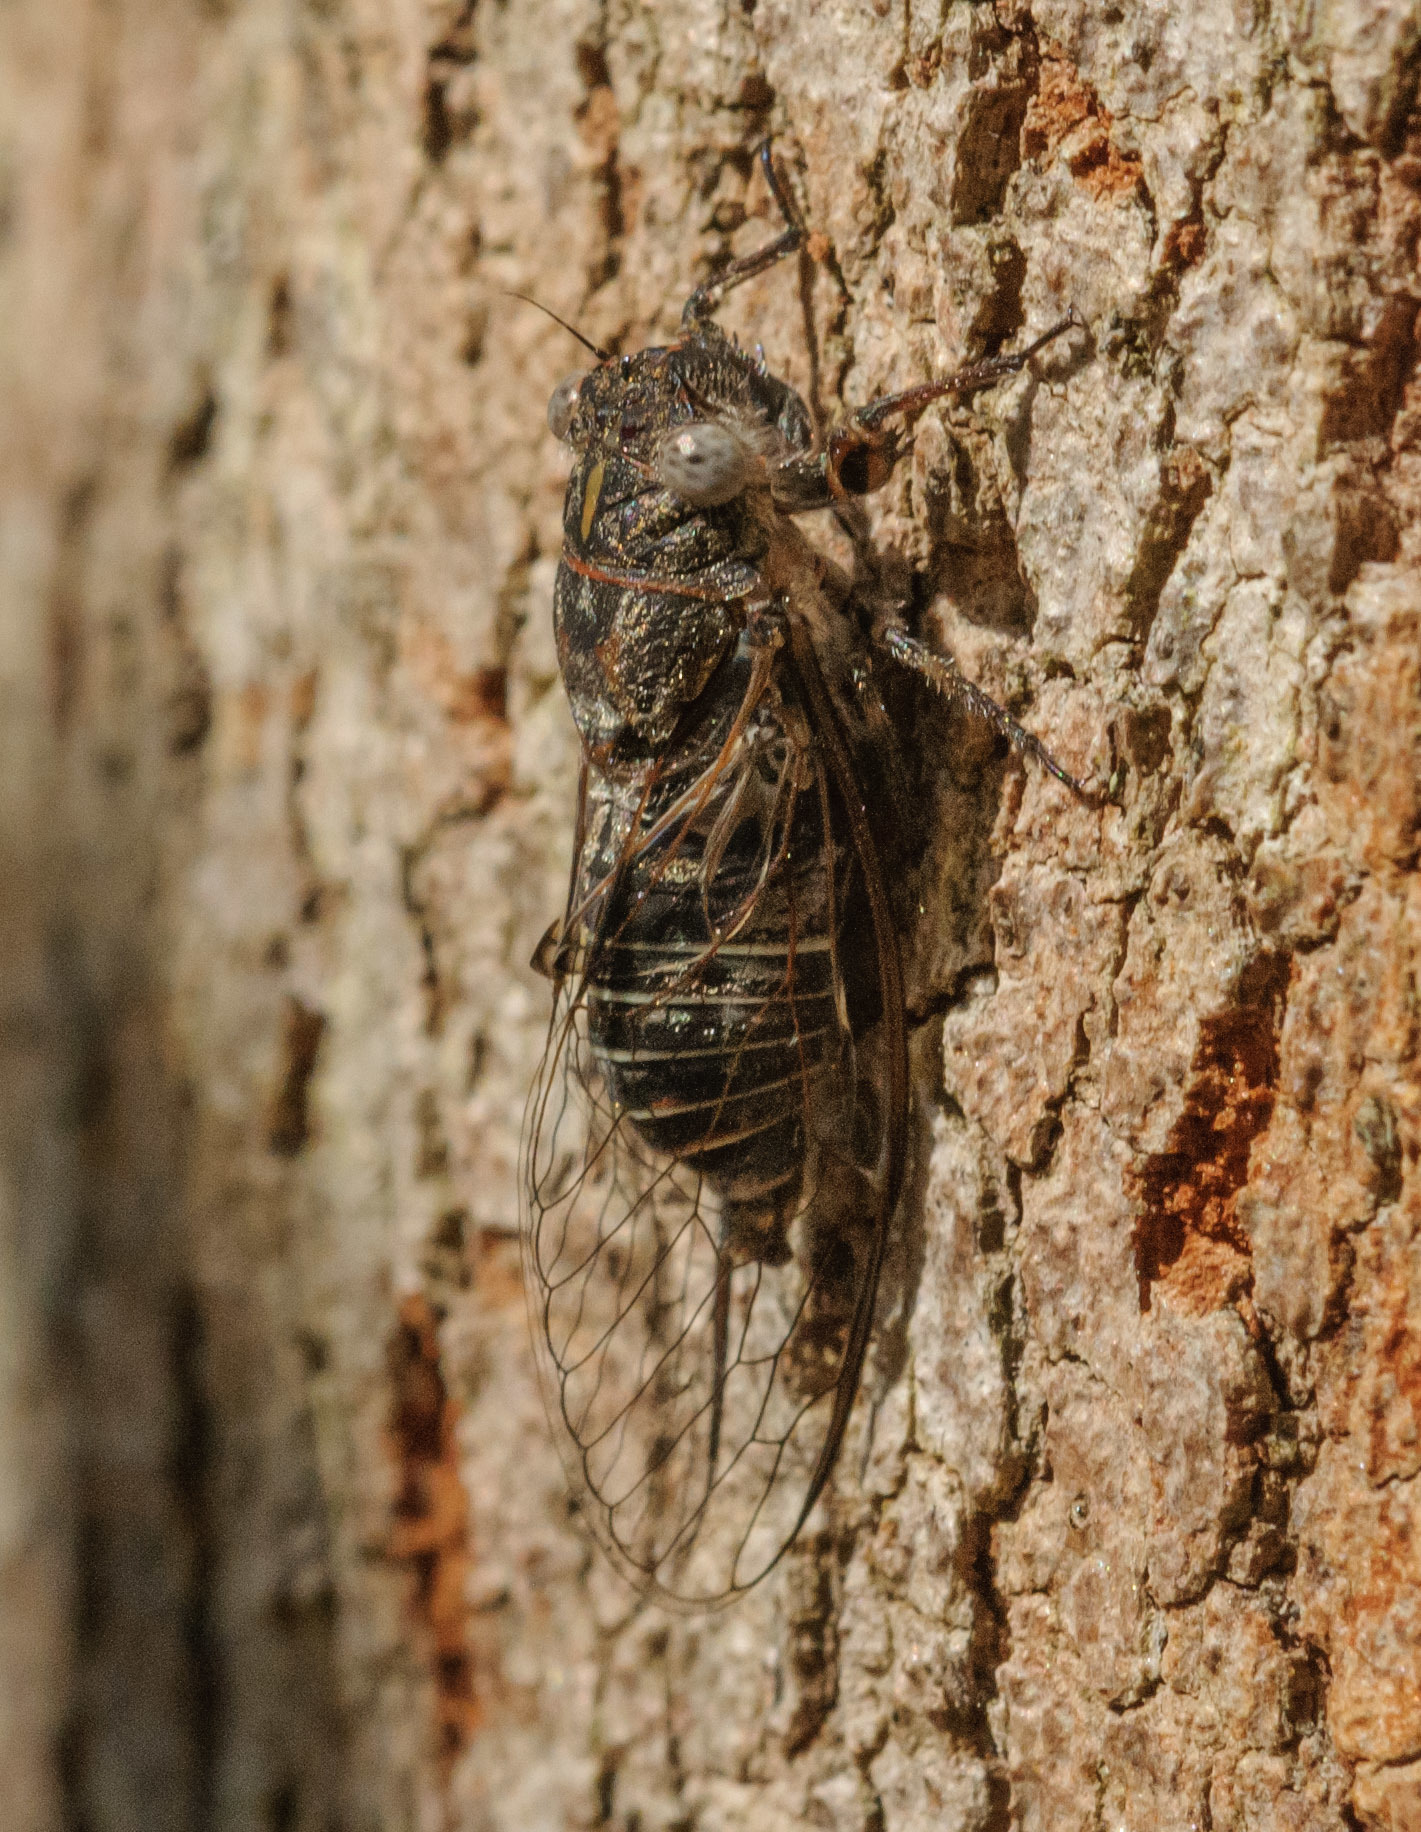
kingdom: Animalia
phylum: Arthropoda
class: Insecta
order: Hemiptera
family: Cicadidae
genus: Atrapsalta
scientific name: Atrapsalta corticina
